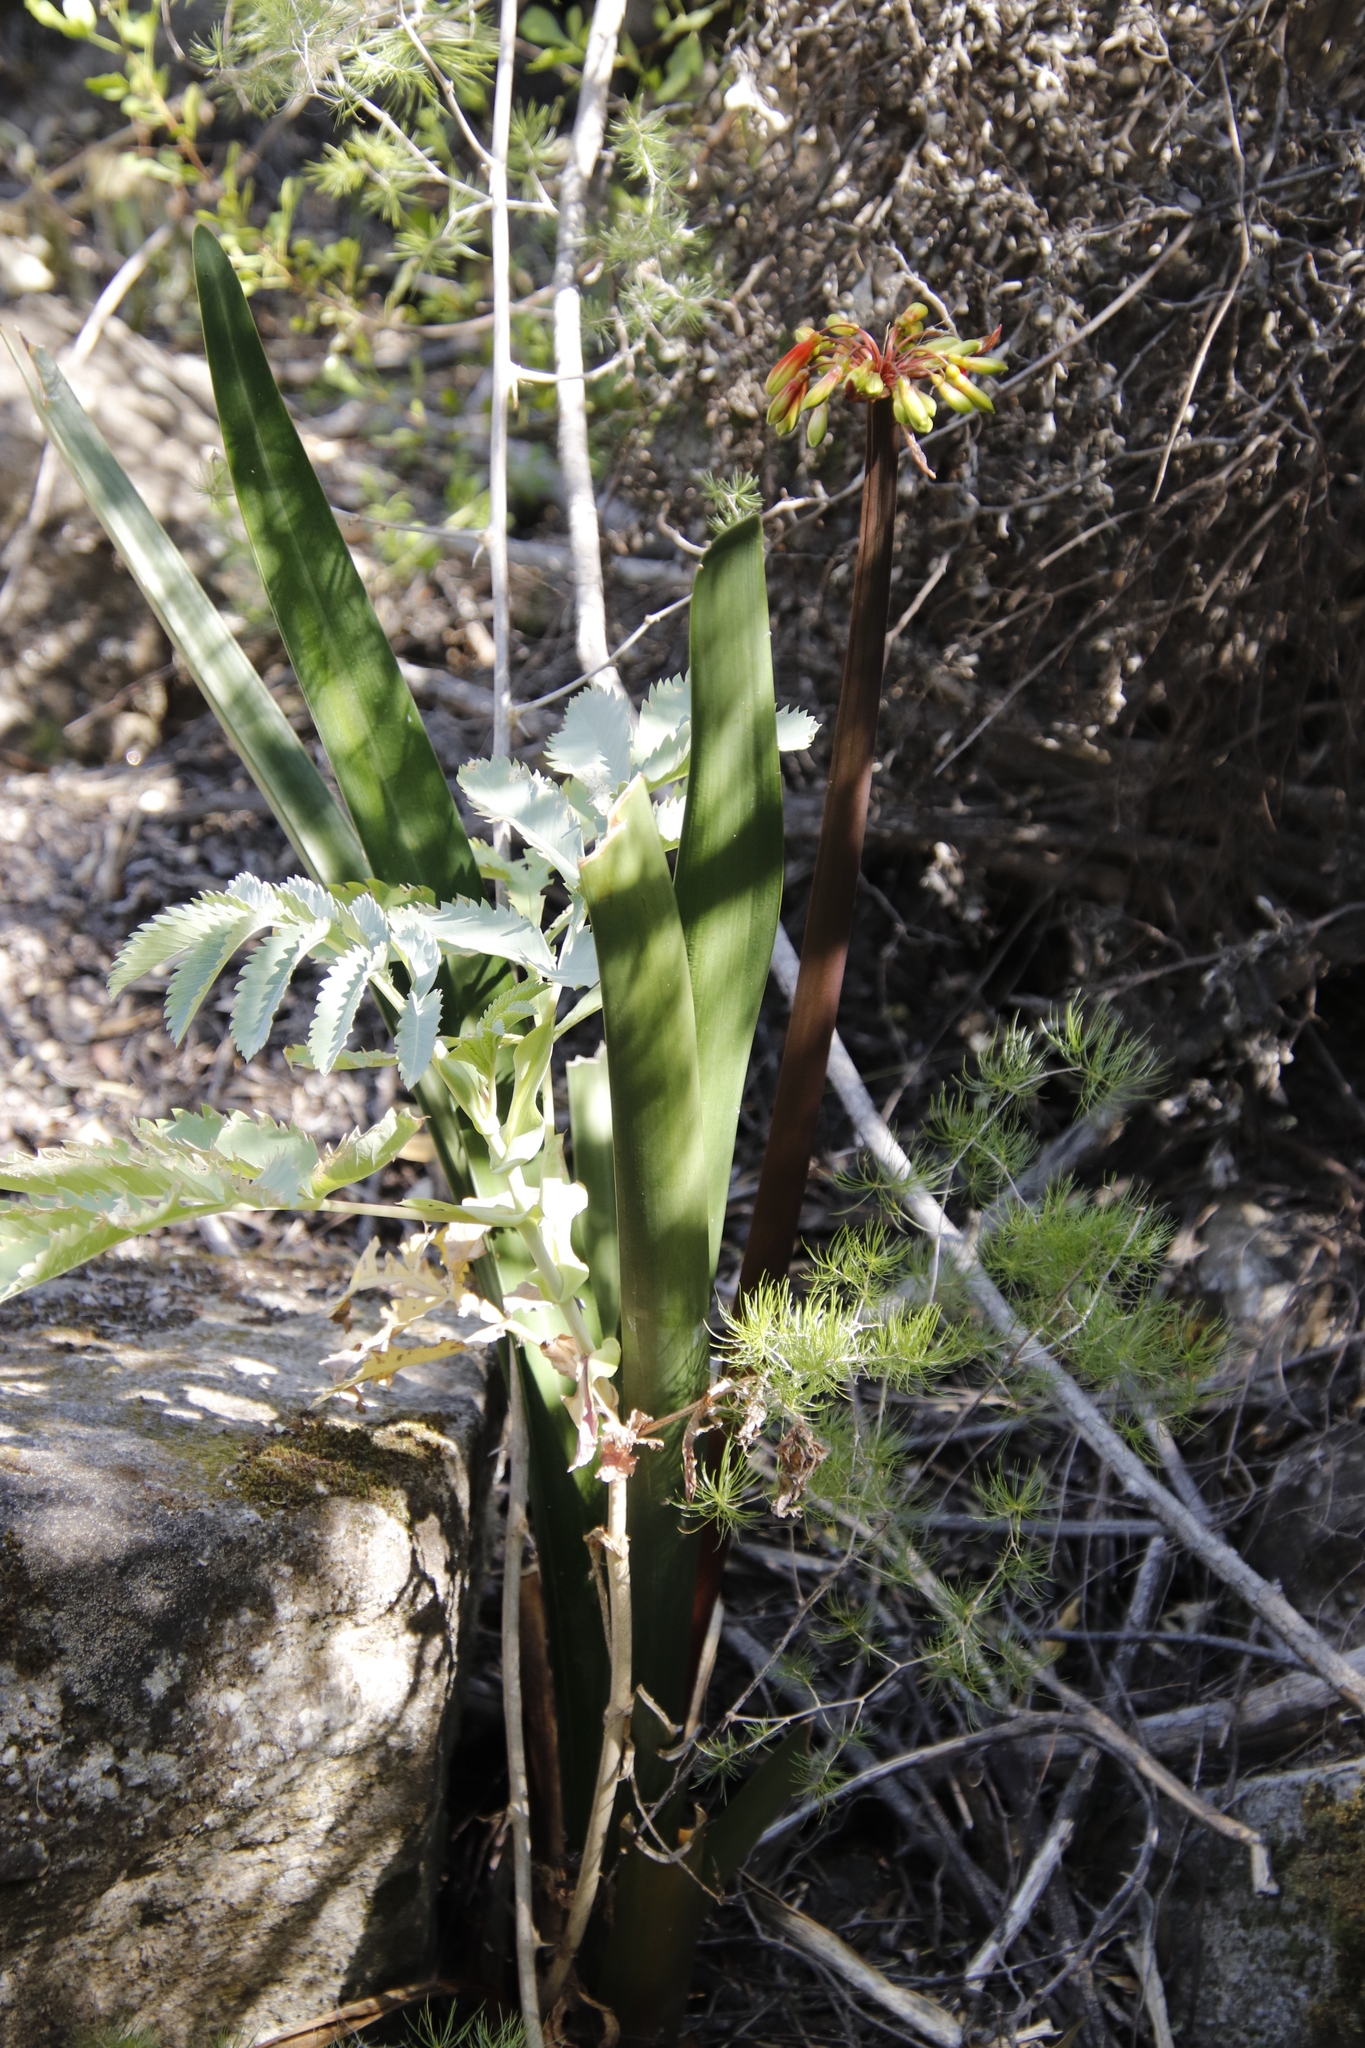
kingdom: Plantae
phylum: Tracheophyta
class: Liliopsida
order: Asparagales
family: Amaryllidaceae
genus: Clivia
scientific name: Clivia mirabilis
